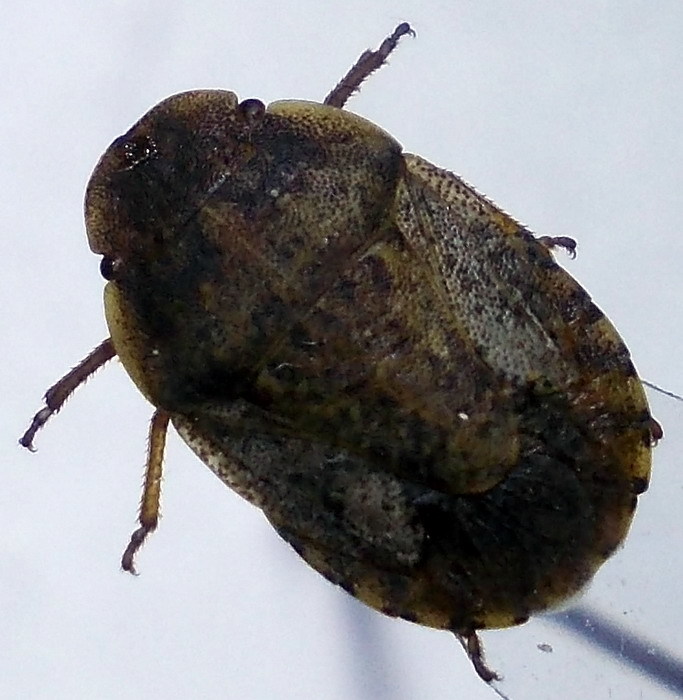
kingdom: Animalia
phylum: Arthropoda
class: Insecta
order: Hemiptera
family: Pentatomidae
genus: Sciocoris
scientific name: Sciocoris deltocephalus
